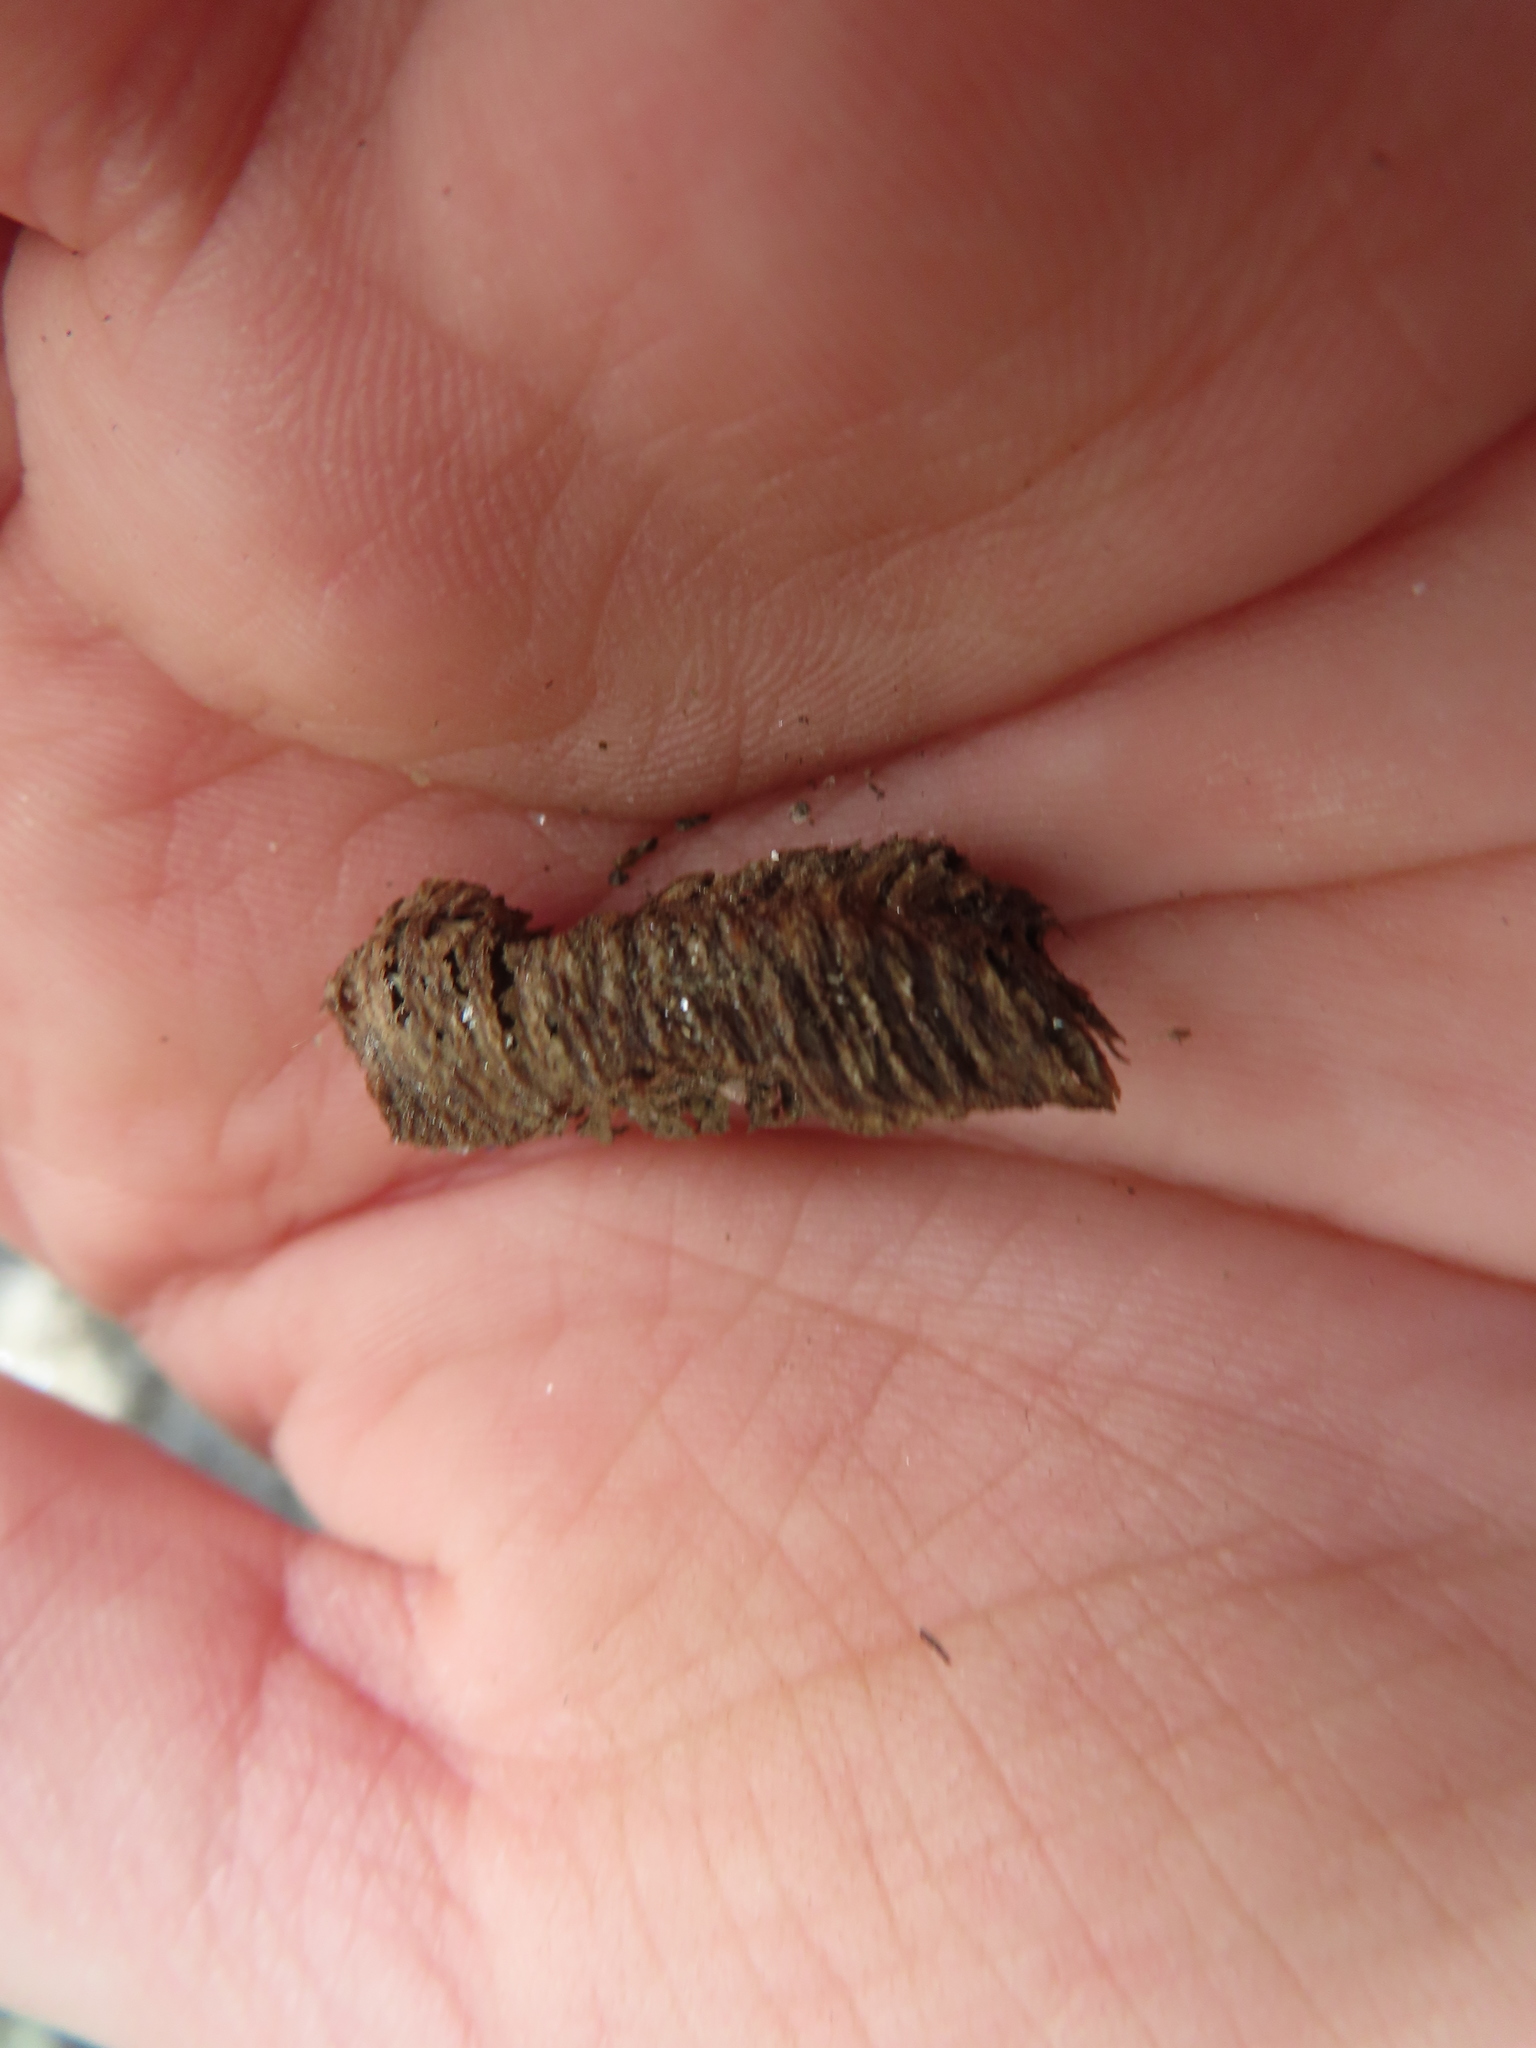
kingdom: Animalia
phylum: Arthropoda
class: Insecta
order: Mantodea
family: Mantidae
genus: Stagmomantis
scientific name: Stagmomantis carolina
